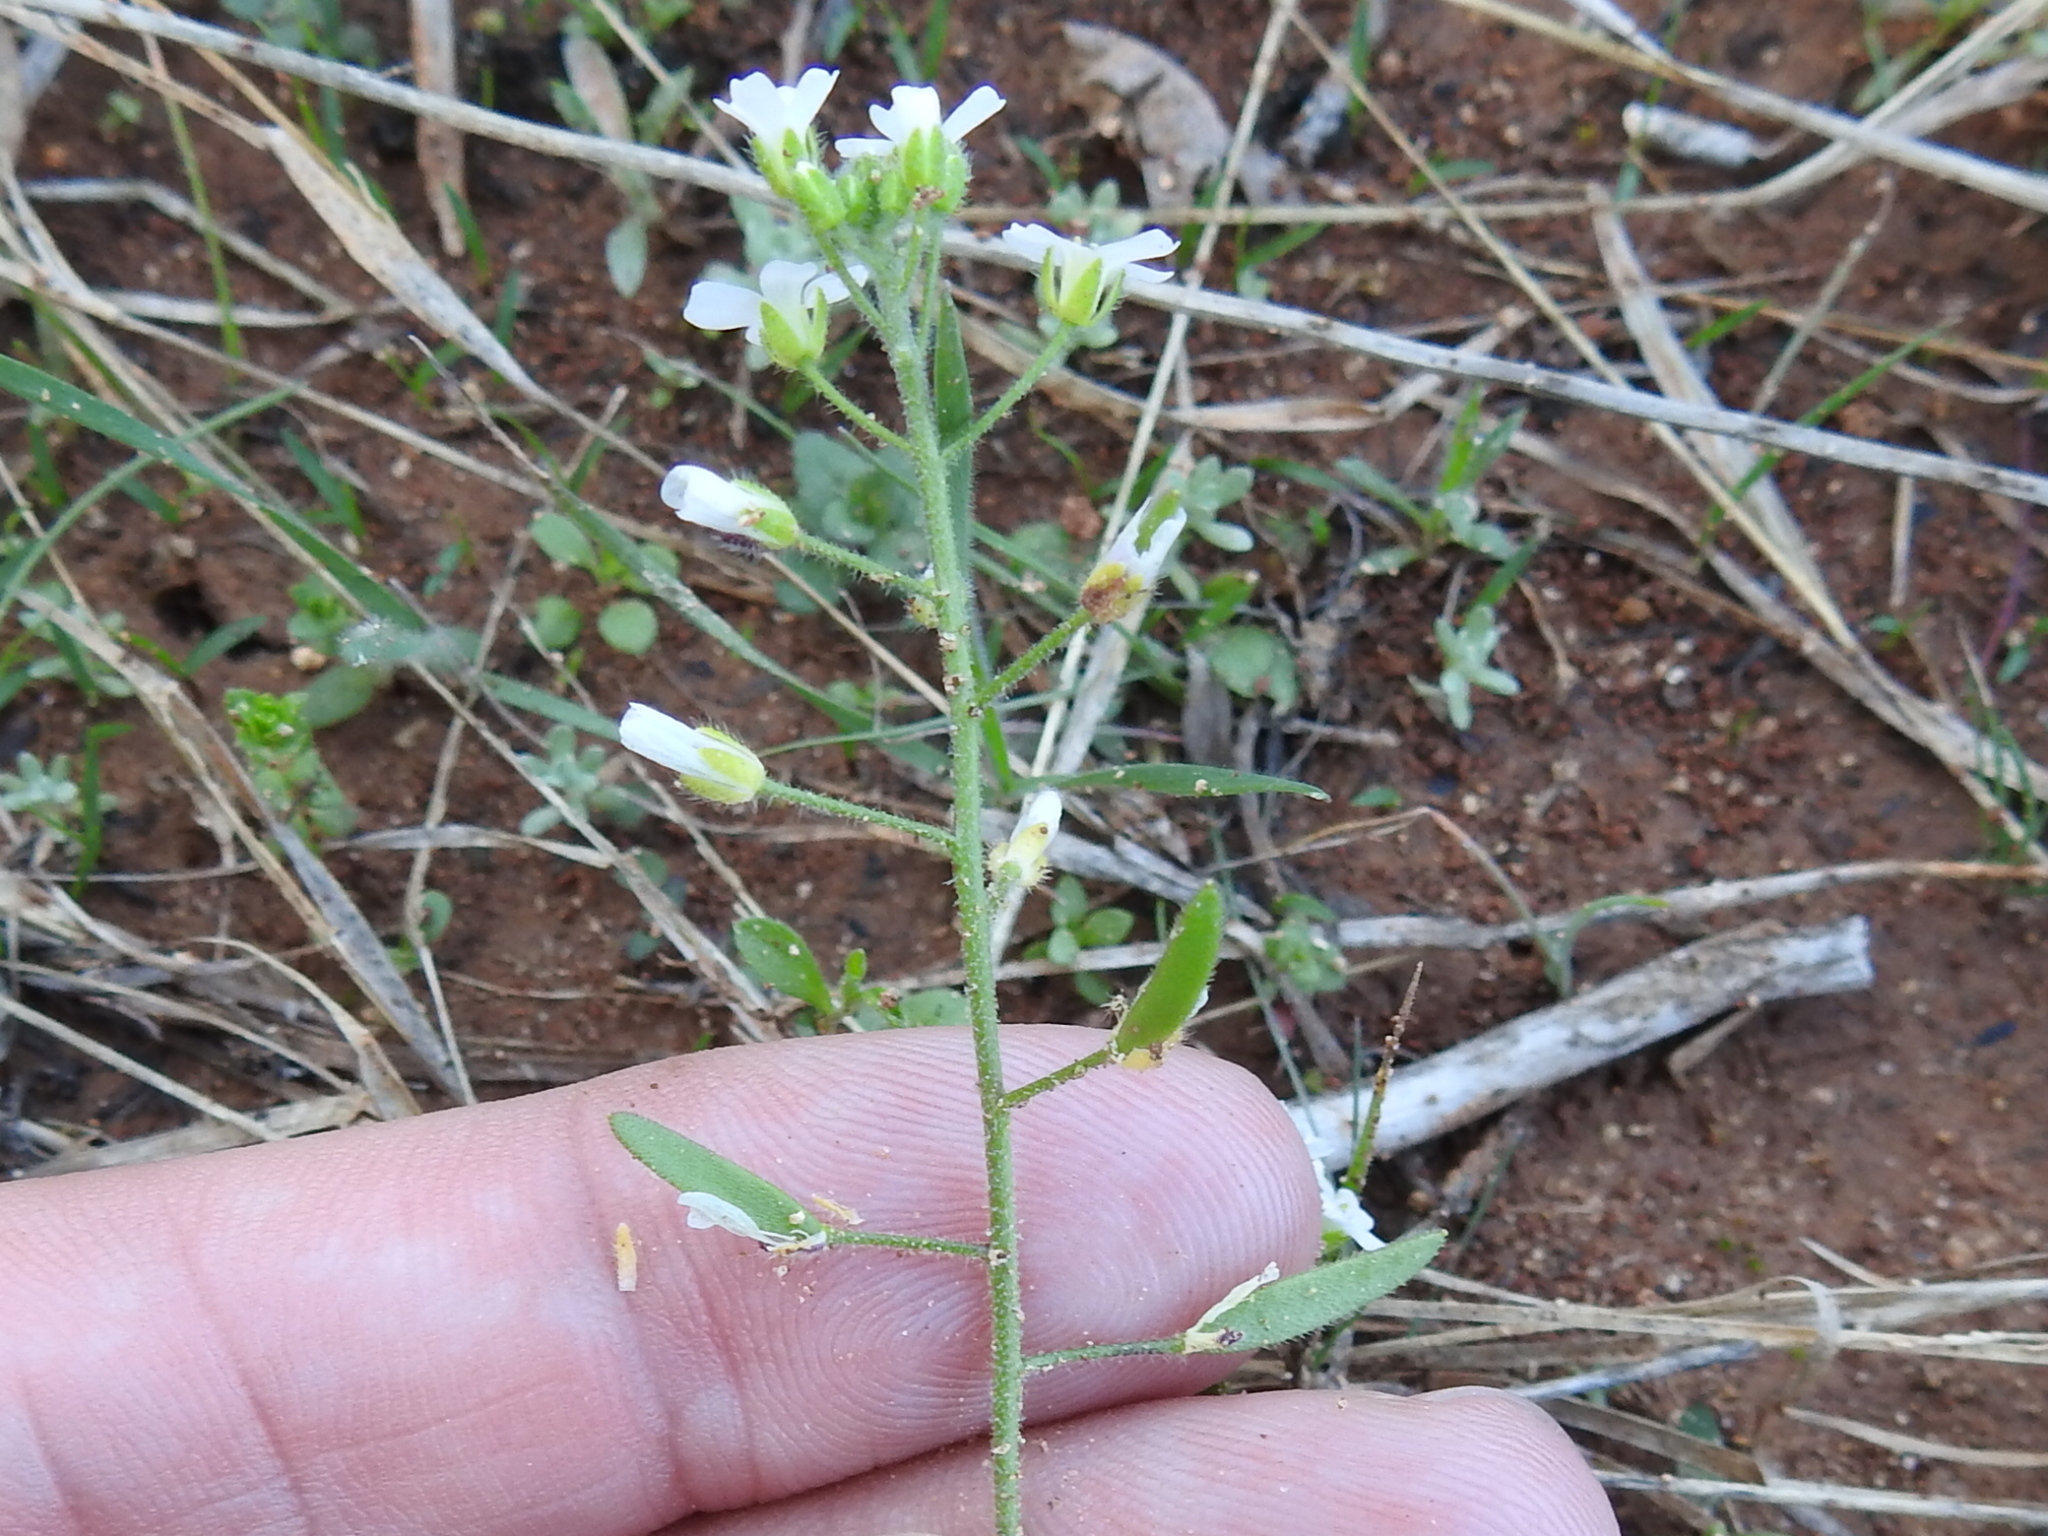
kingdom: Plantae
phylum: Tracheophyta
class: Magnoliopsida
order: Brassicales
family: Brassicaceae
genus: Tomostima
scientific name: Tomostima cuneifolia
